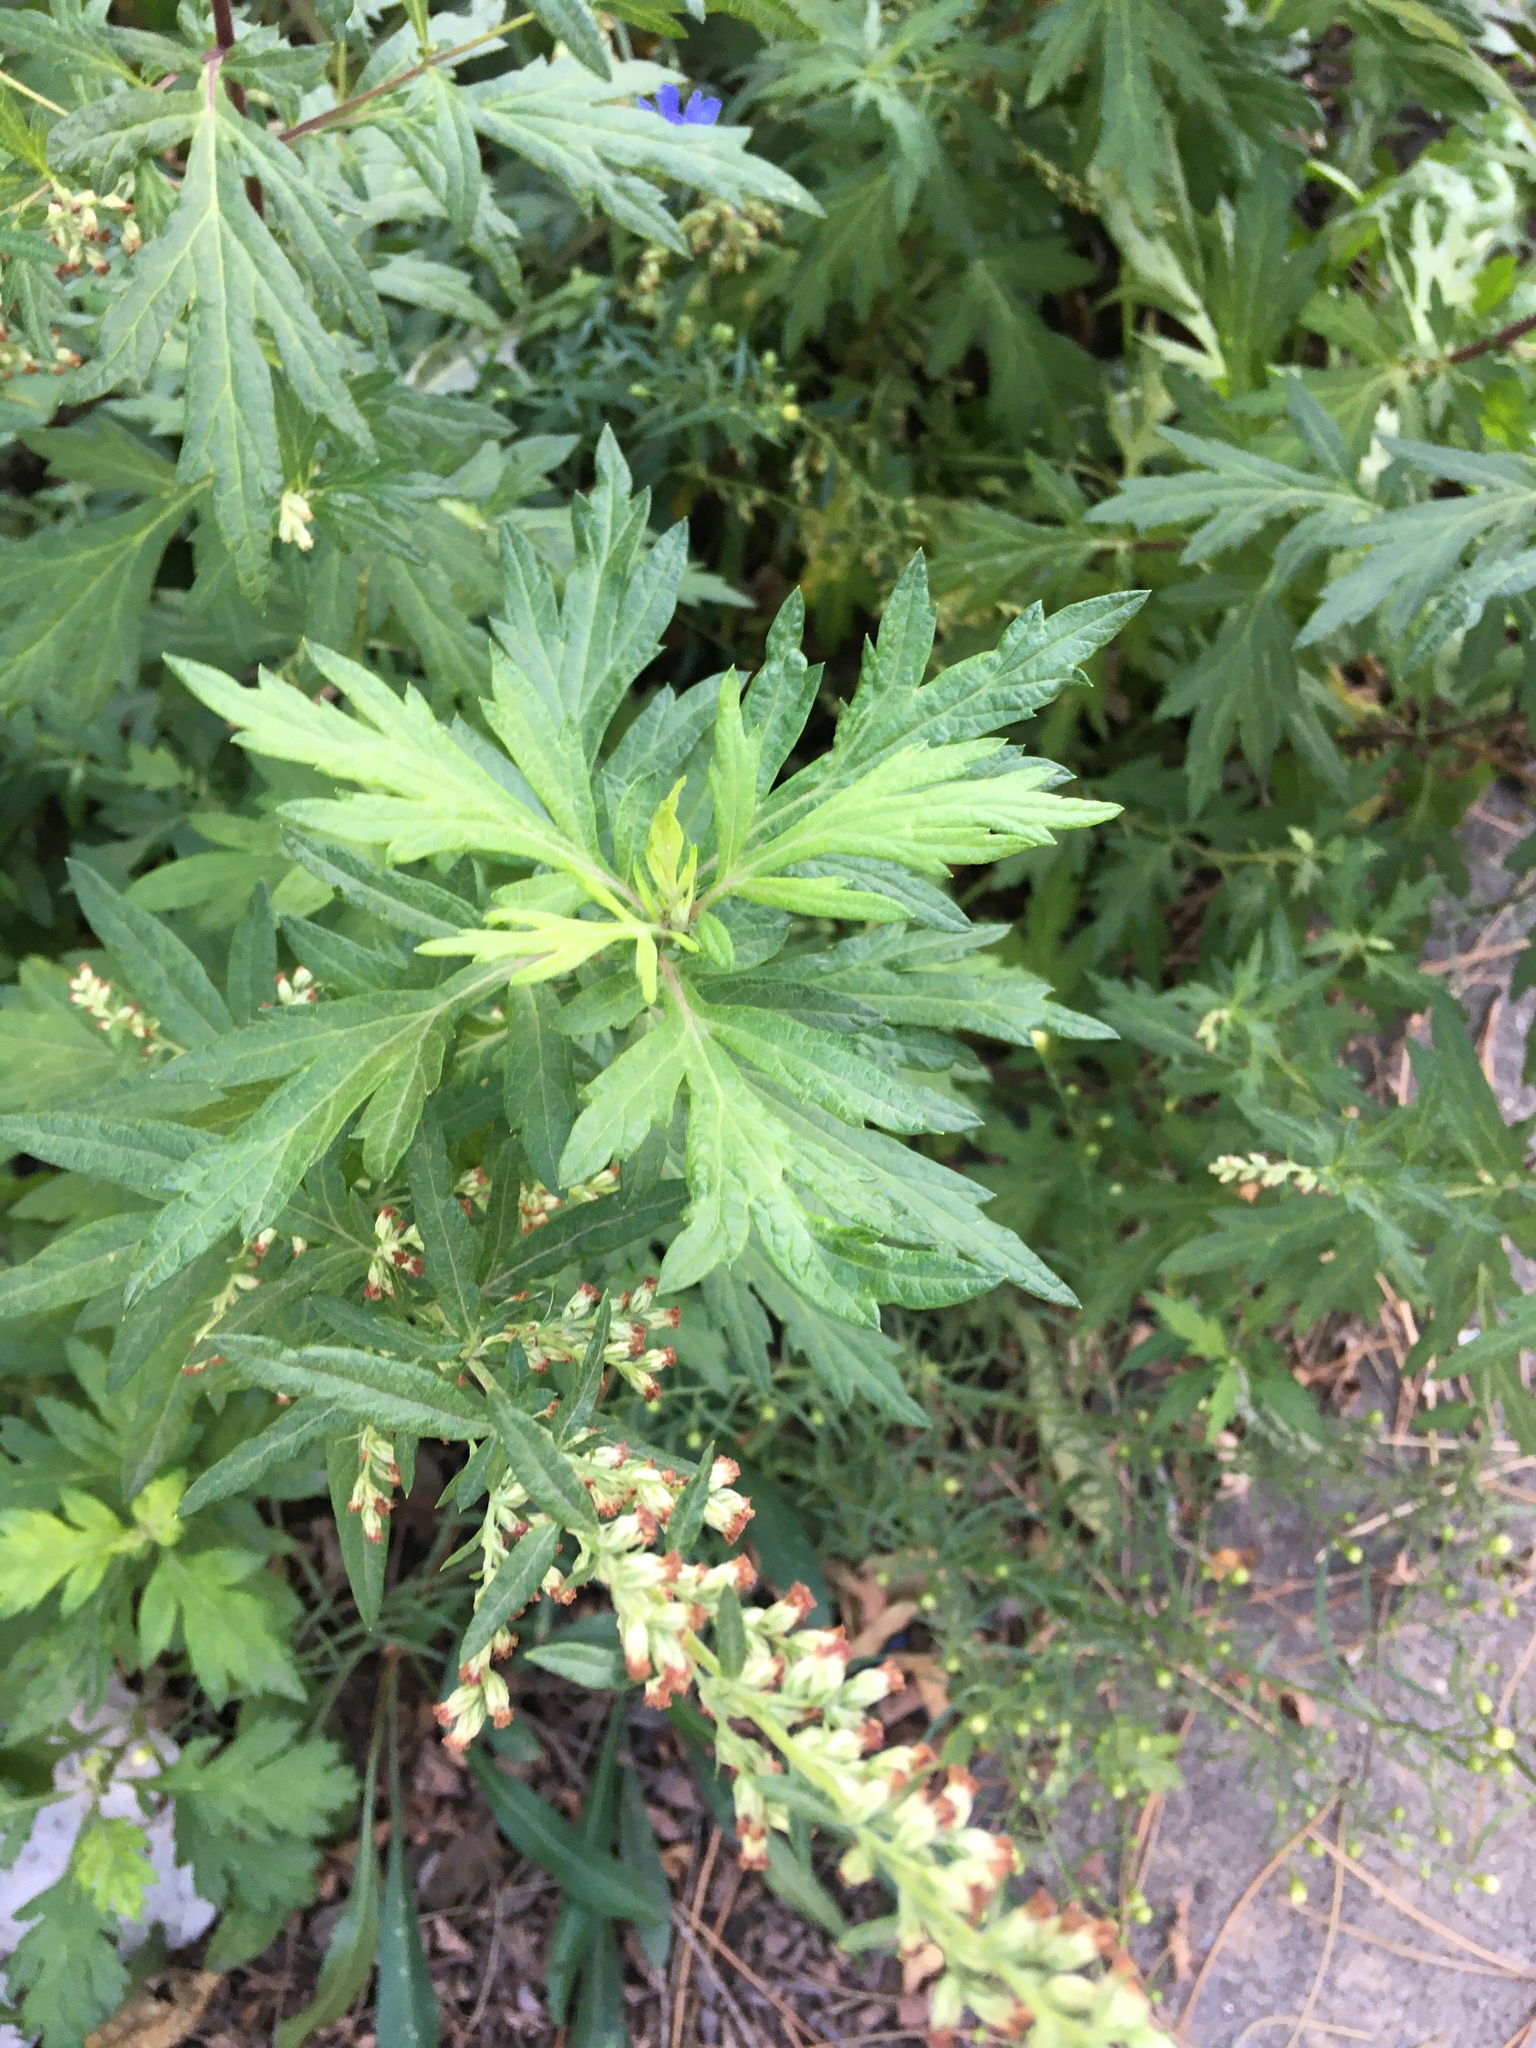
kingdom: Plantae
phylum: Tracheophyta
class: Magnoliopsida
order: Asterales
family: Asteraceae
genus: Artemisia
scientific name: Artemisia vulgaris
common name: Mugwort
